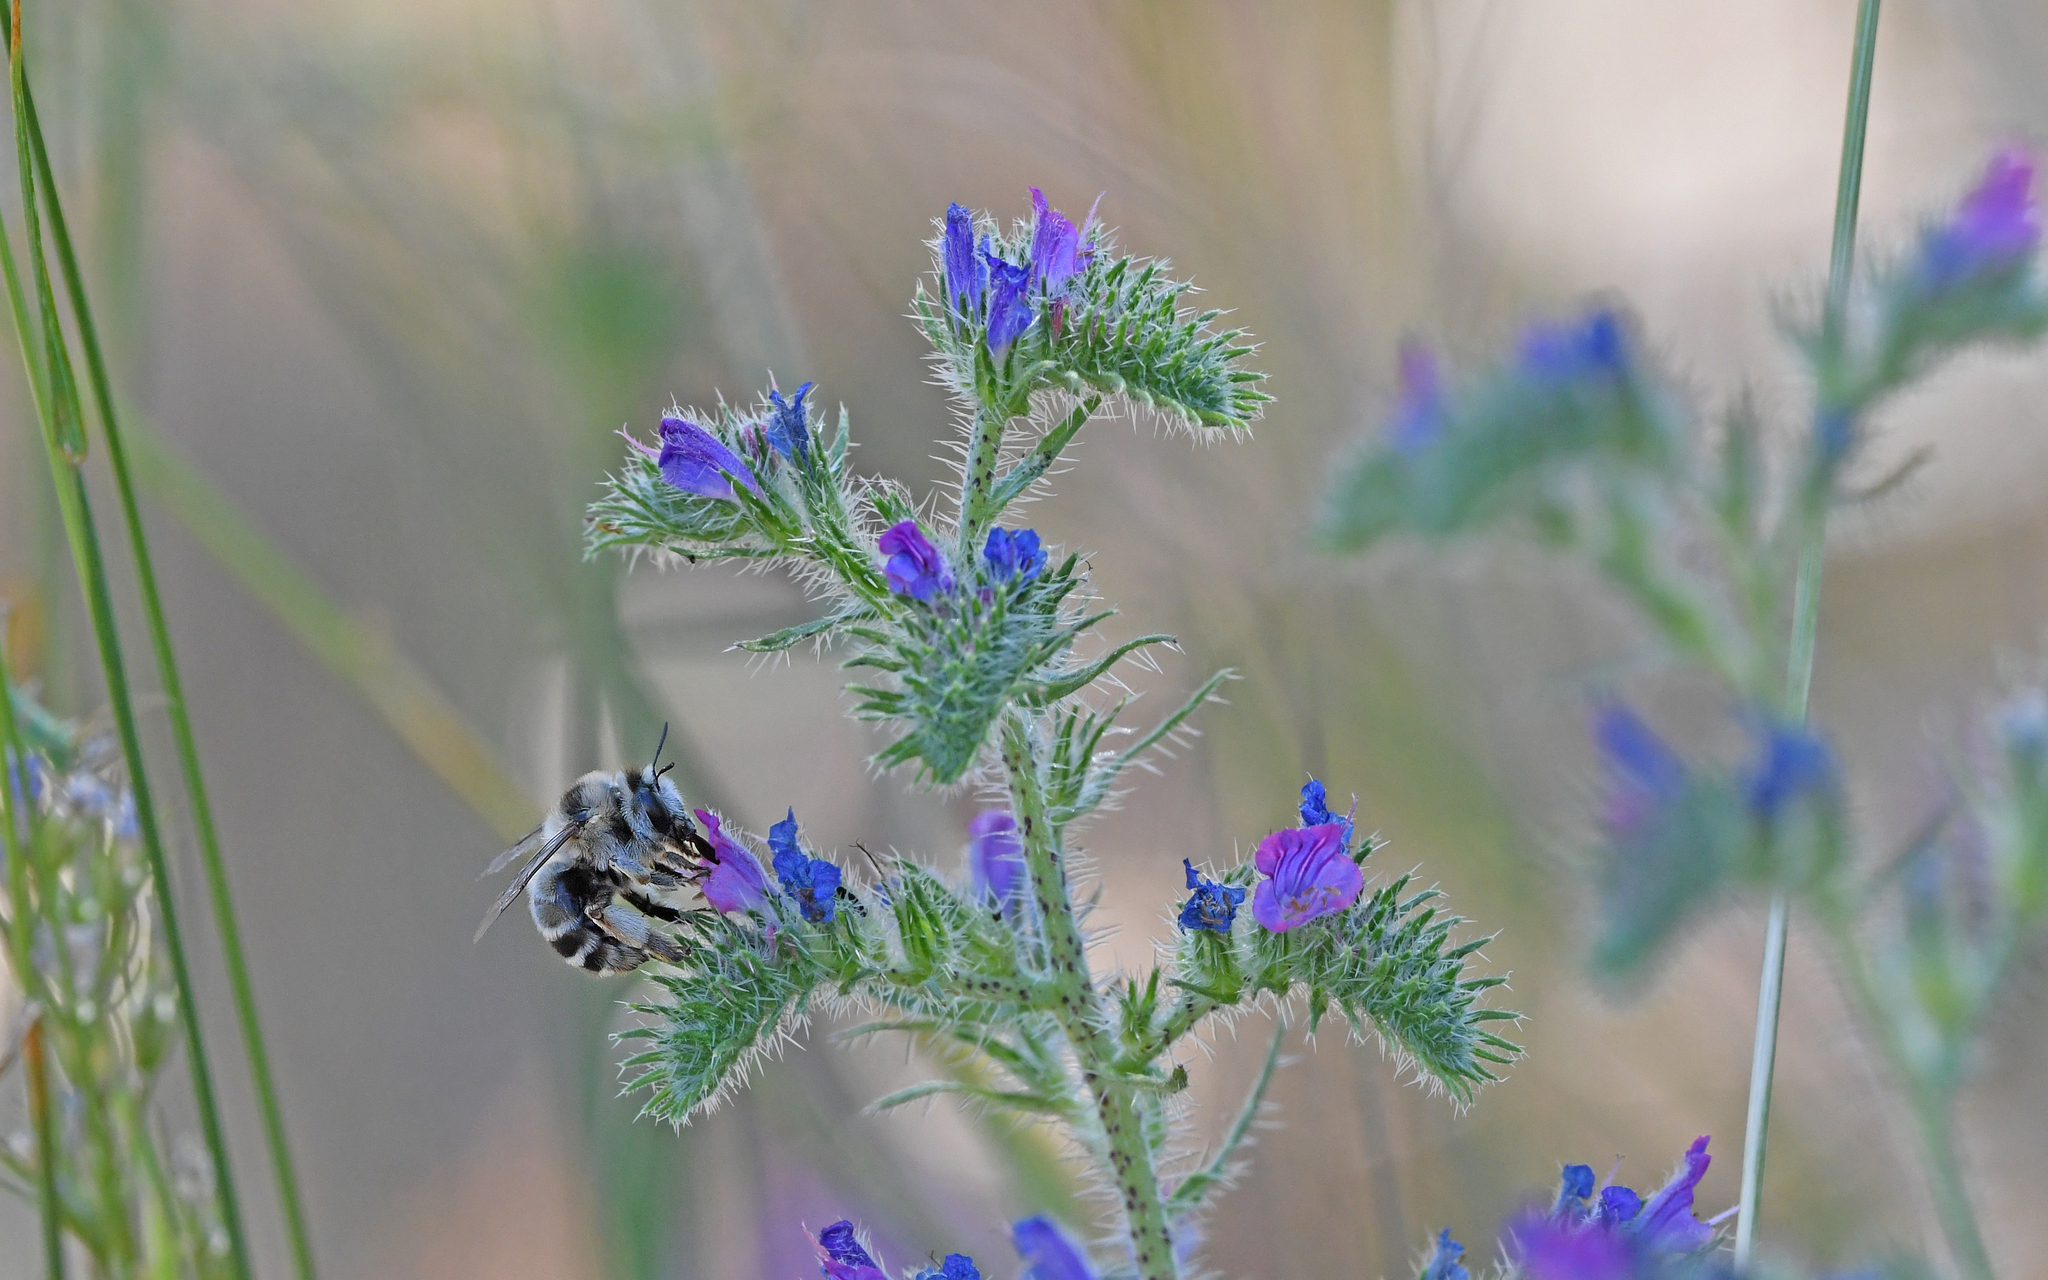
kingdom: Animalia
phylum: Arthropoda
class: Insecta
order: Hymenoptera
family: Apidae
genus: Anthophora
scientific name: Anthophora aestivalis
